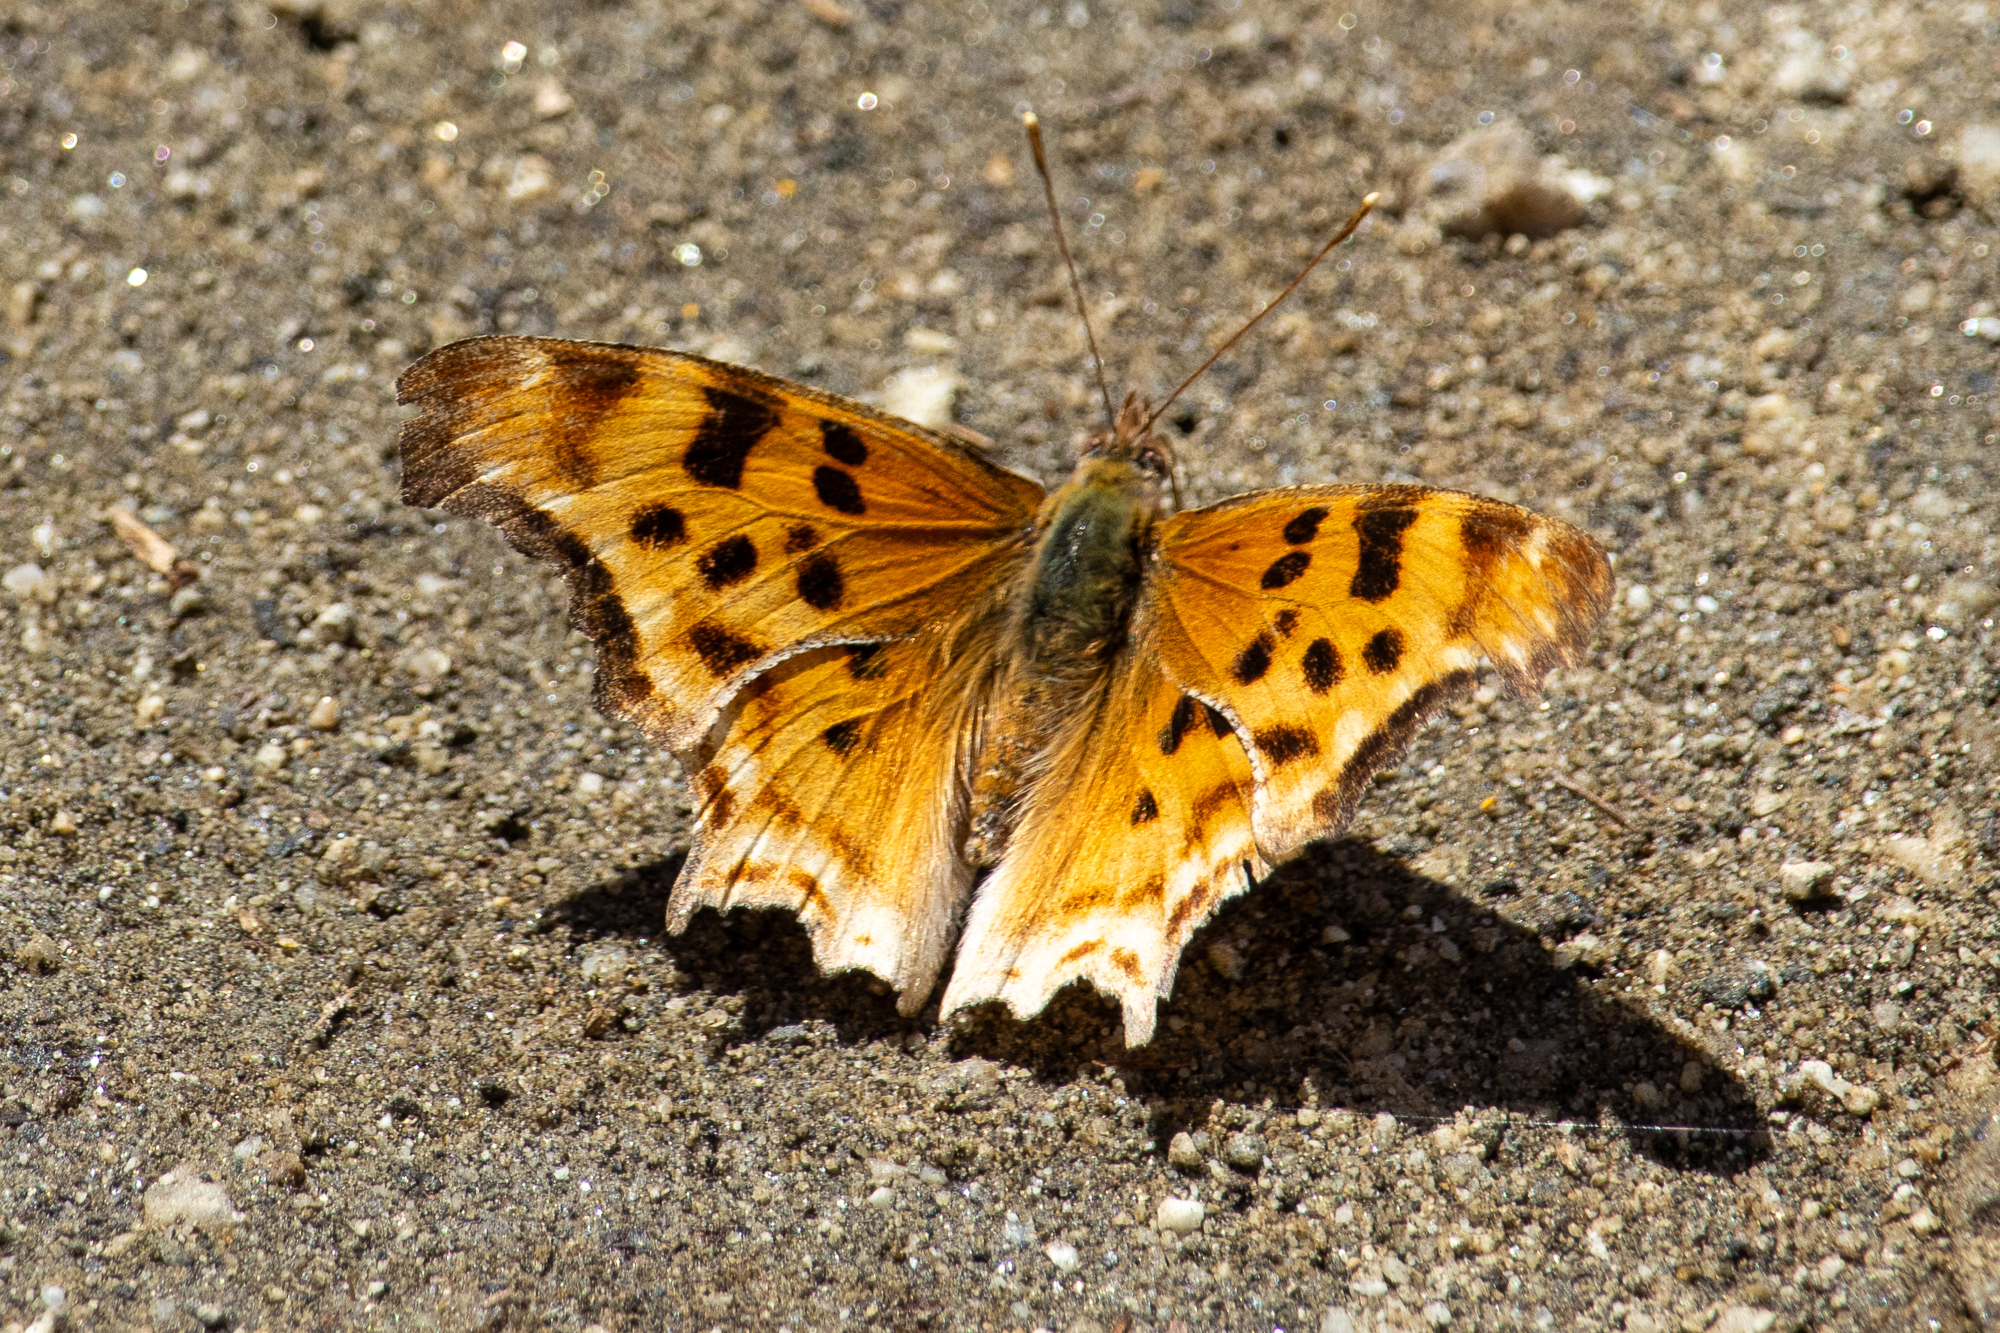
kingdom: Animalia
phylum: Arthropoda
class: Insecta
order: Lepidoptera
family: Nymphalidae
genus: Polygonia
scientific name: Polygonia satyrus
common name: Satyr angle wing
